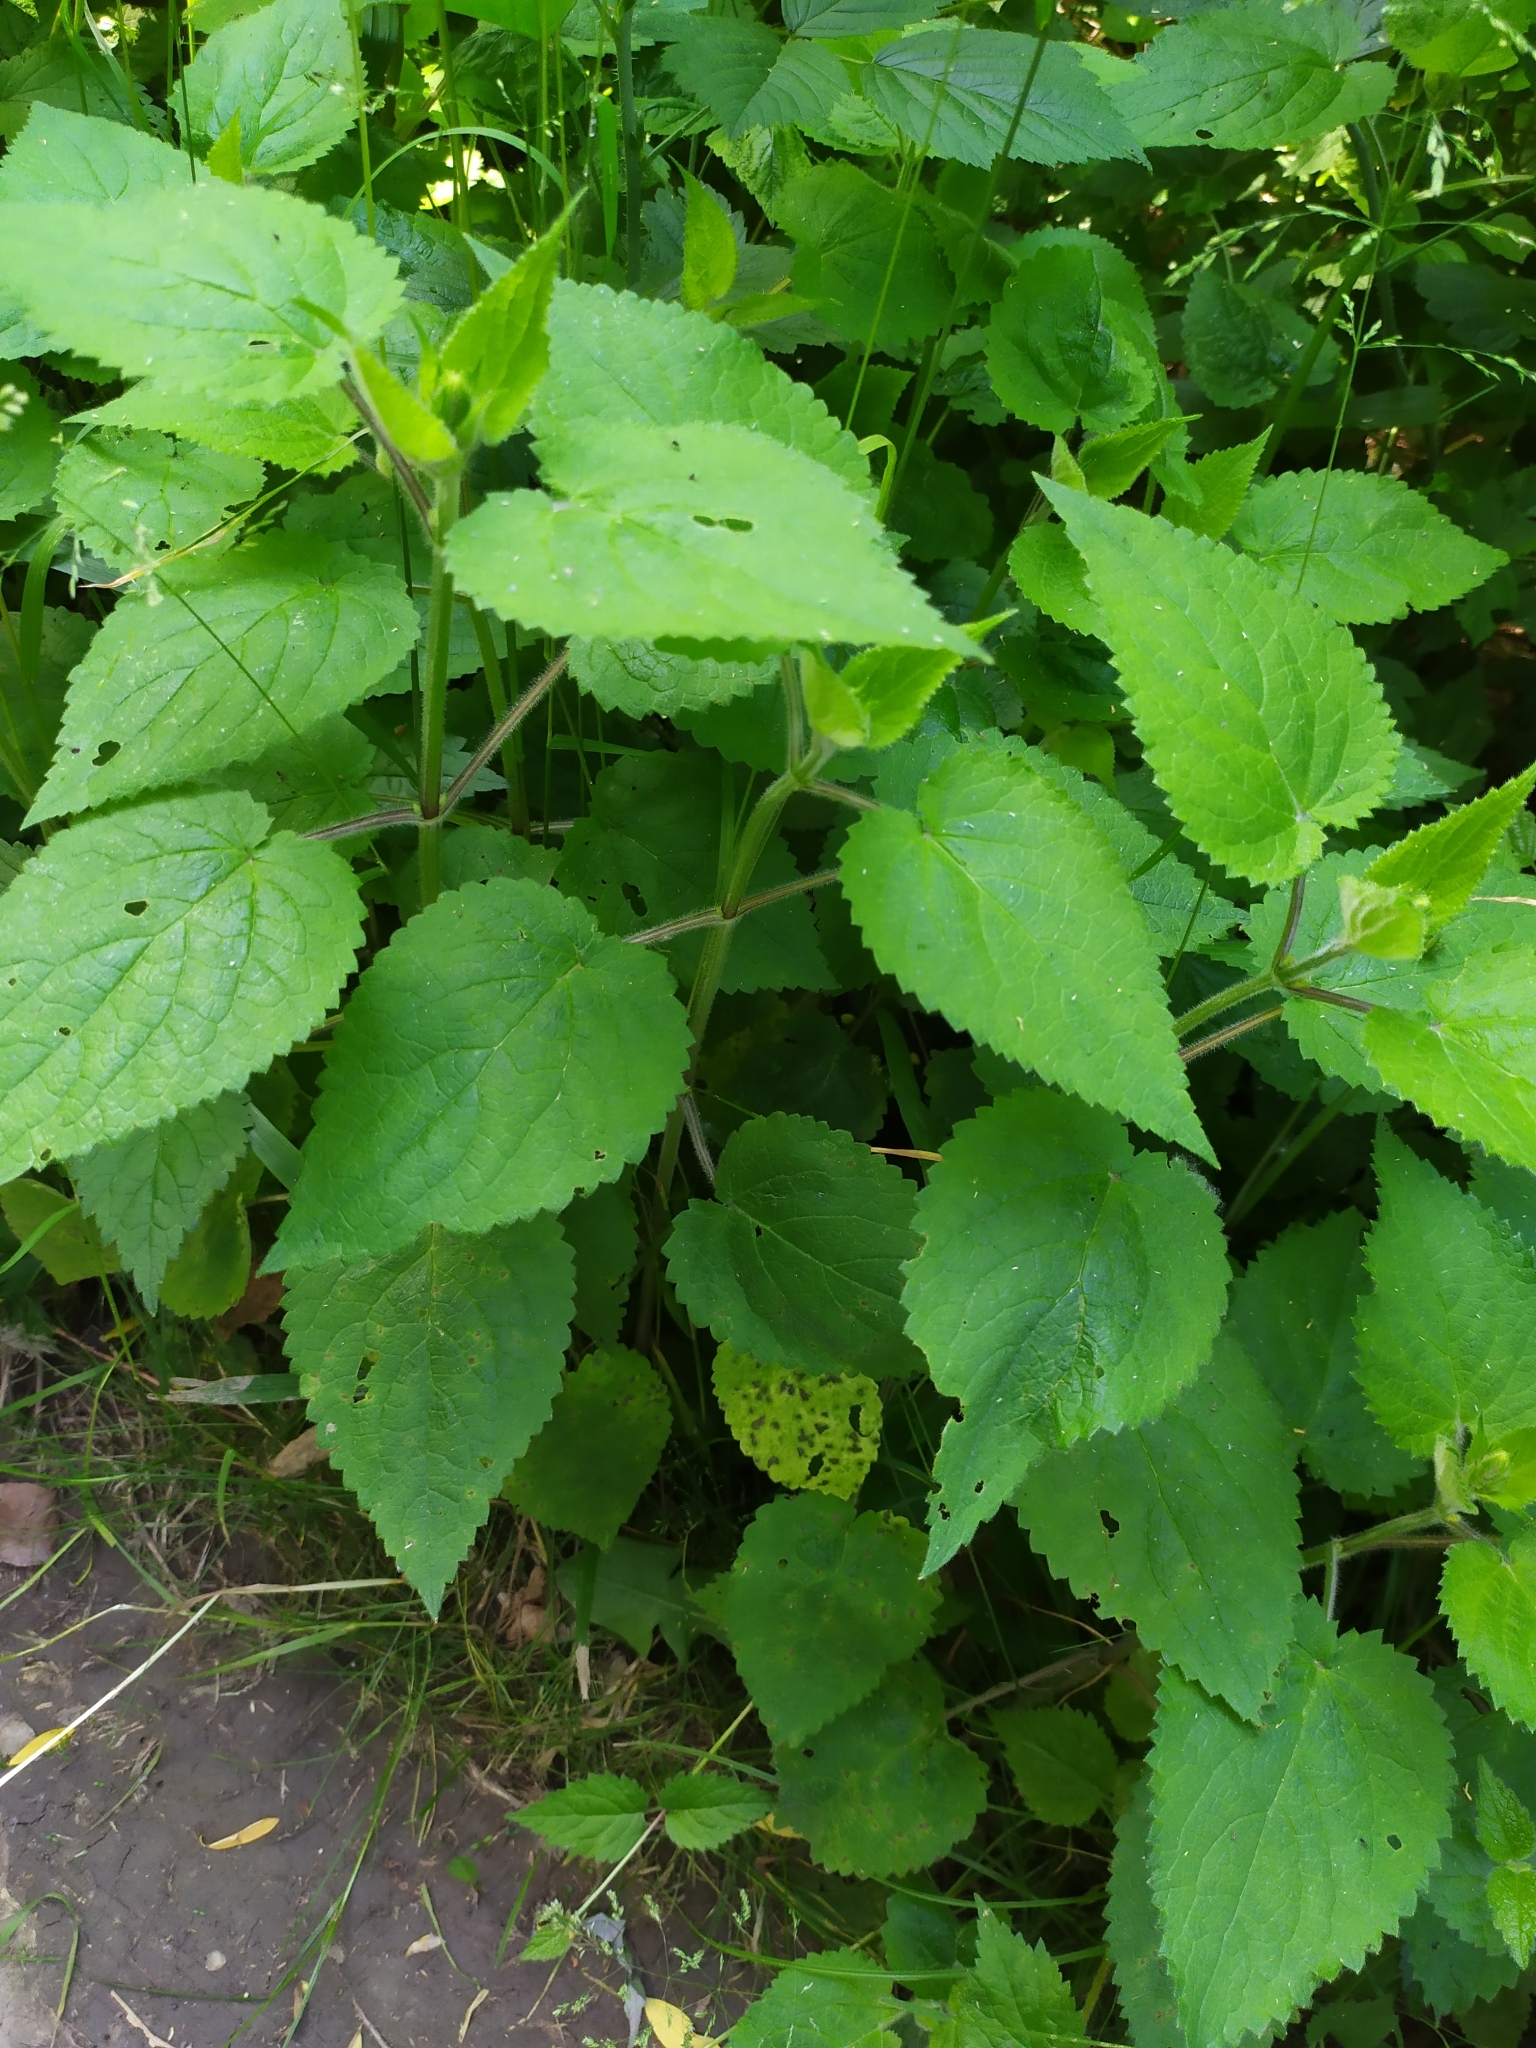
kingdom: Plantae
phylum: Tracheophyta
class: Magnoliopsida
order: Lamiales
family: Lamiaceae
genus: Stachys
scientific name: Stachys sylvatica
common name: Hedge woundwort
